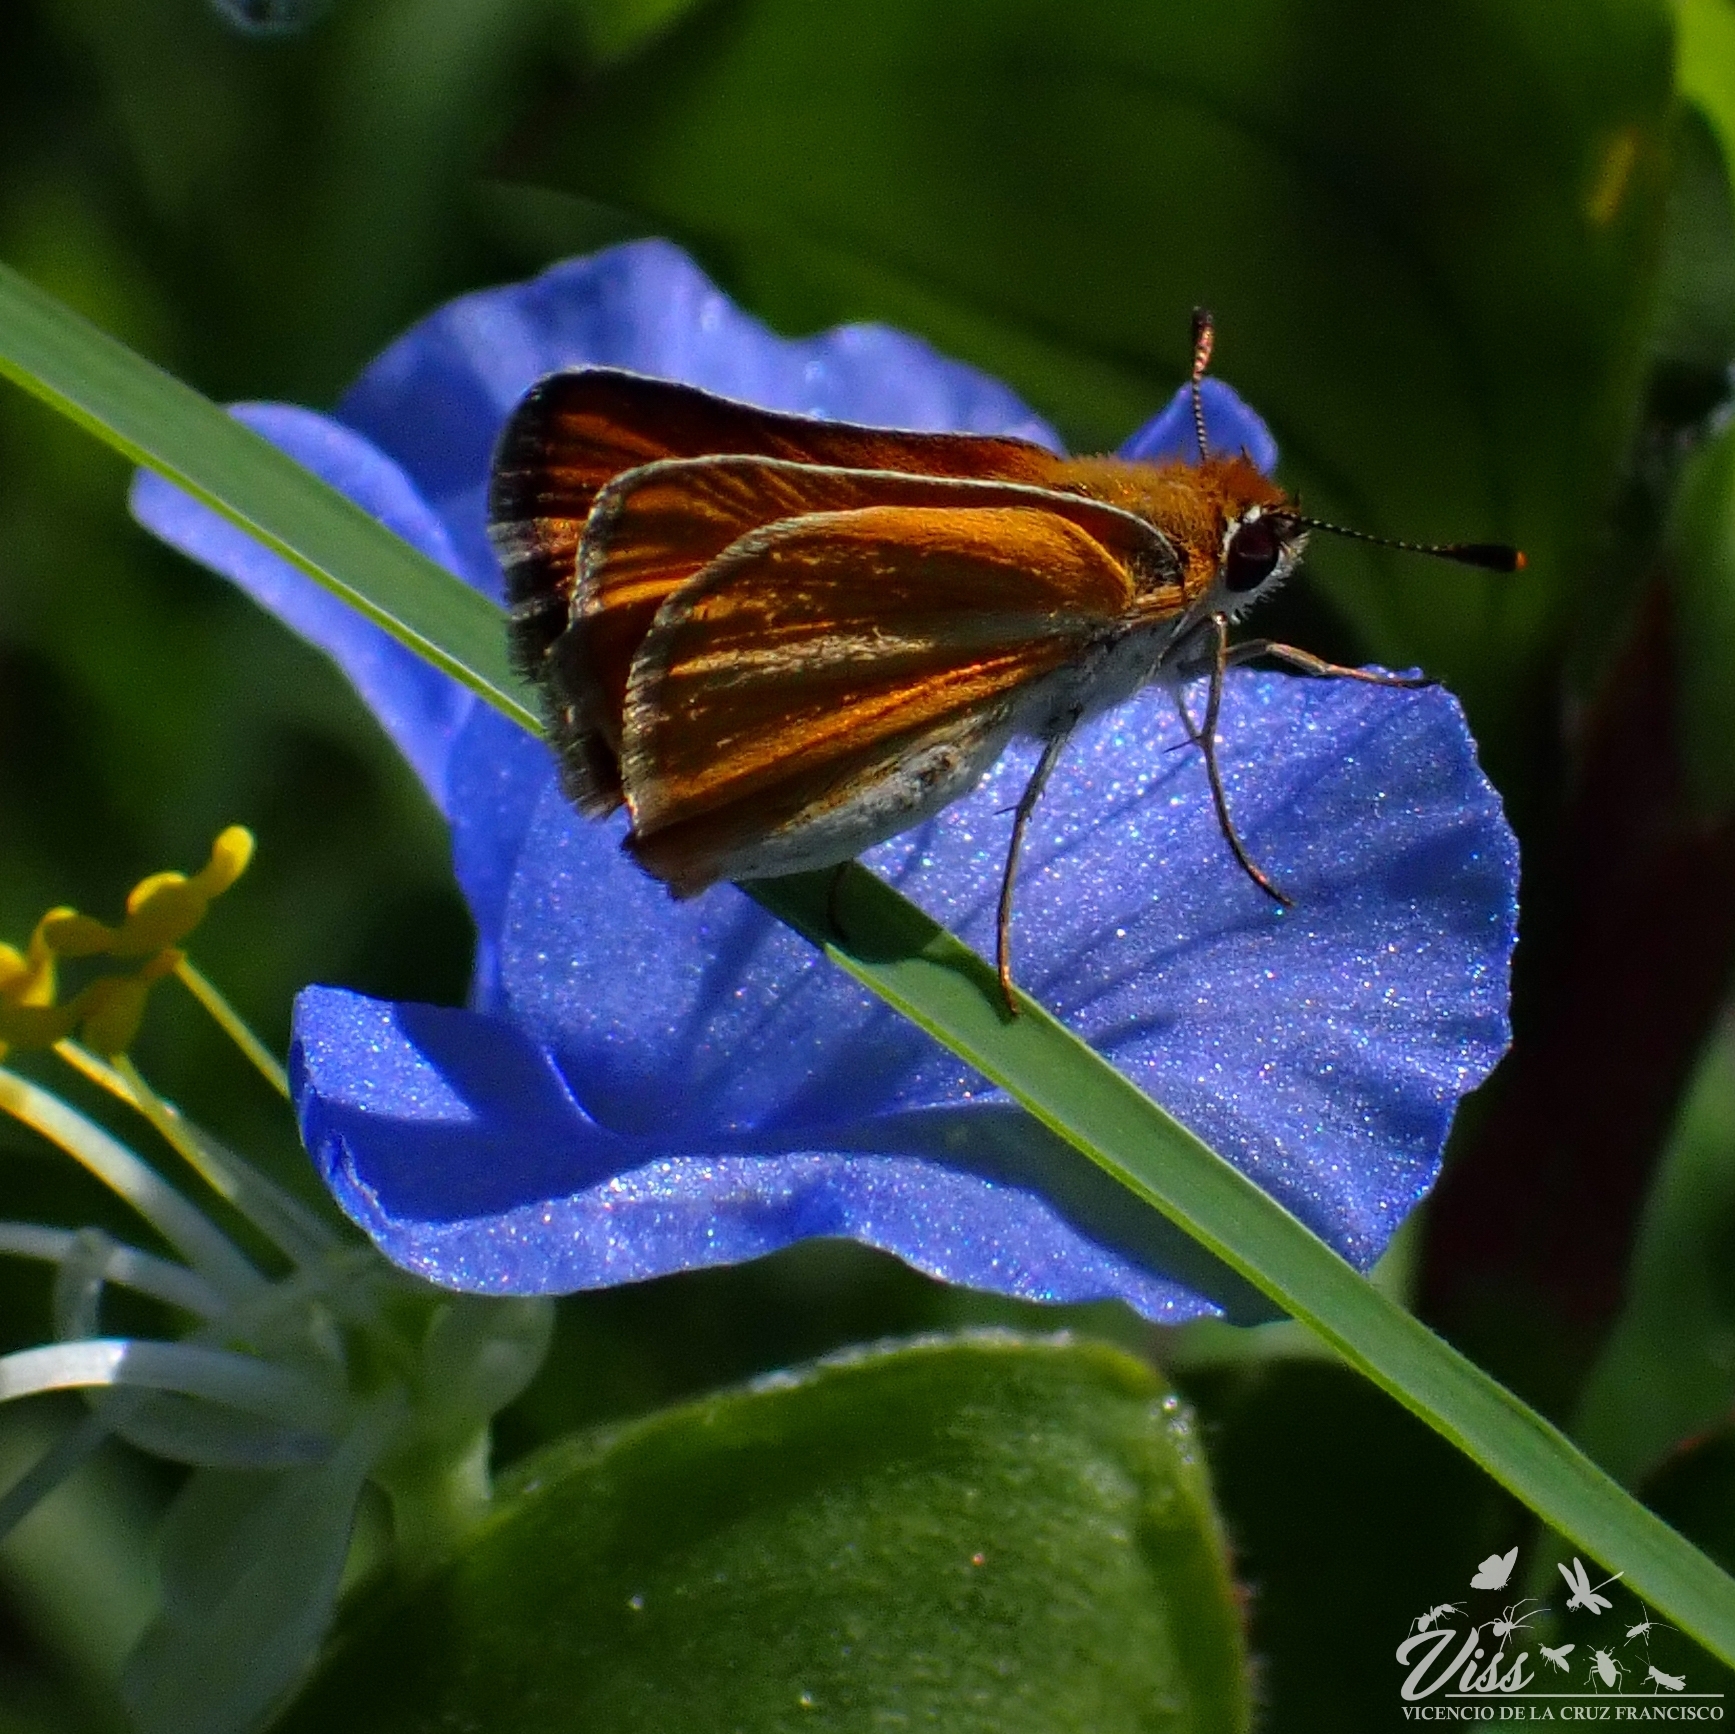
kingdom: Animalia
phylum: Arthropoda
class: Insecta
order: Lepidoptera
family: Hesperiidae
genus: Copaeodes
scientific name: Copaeodes minima
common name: Southern skipperling
